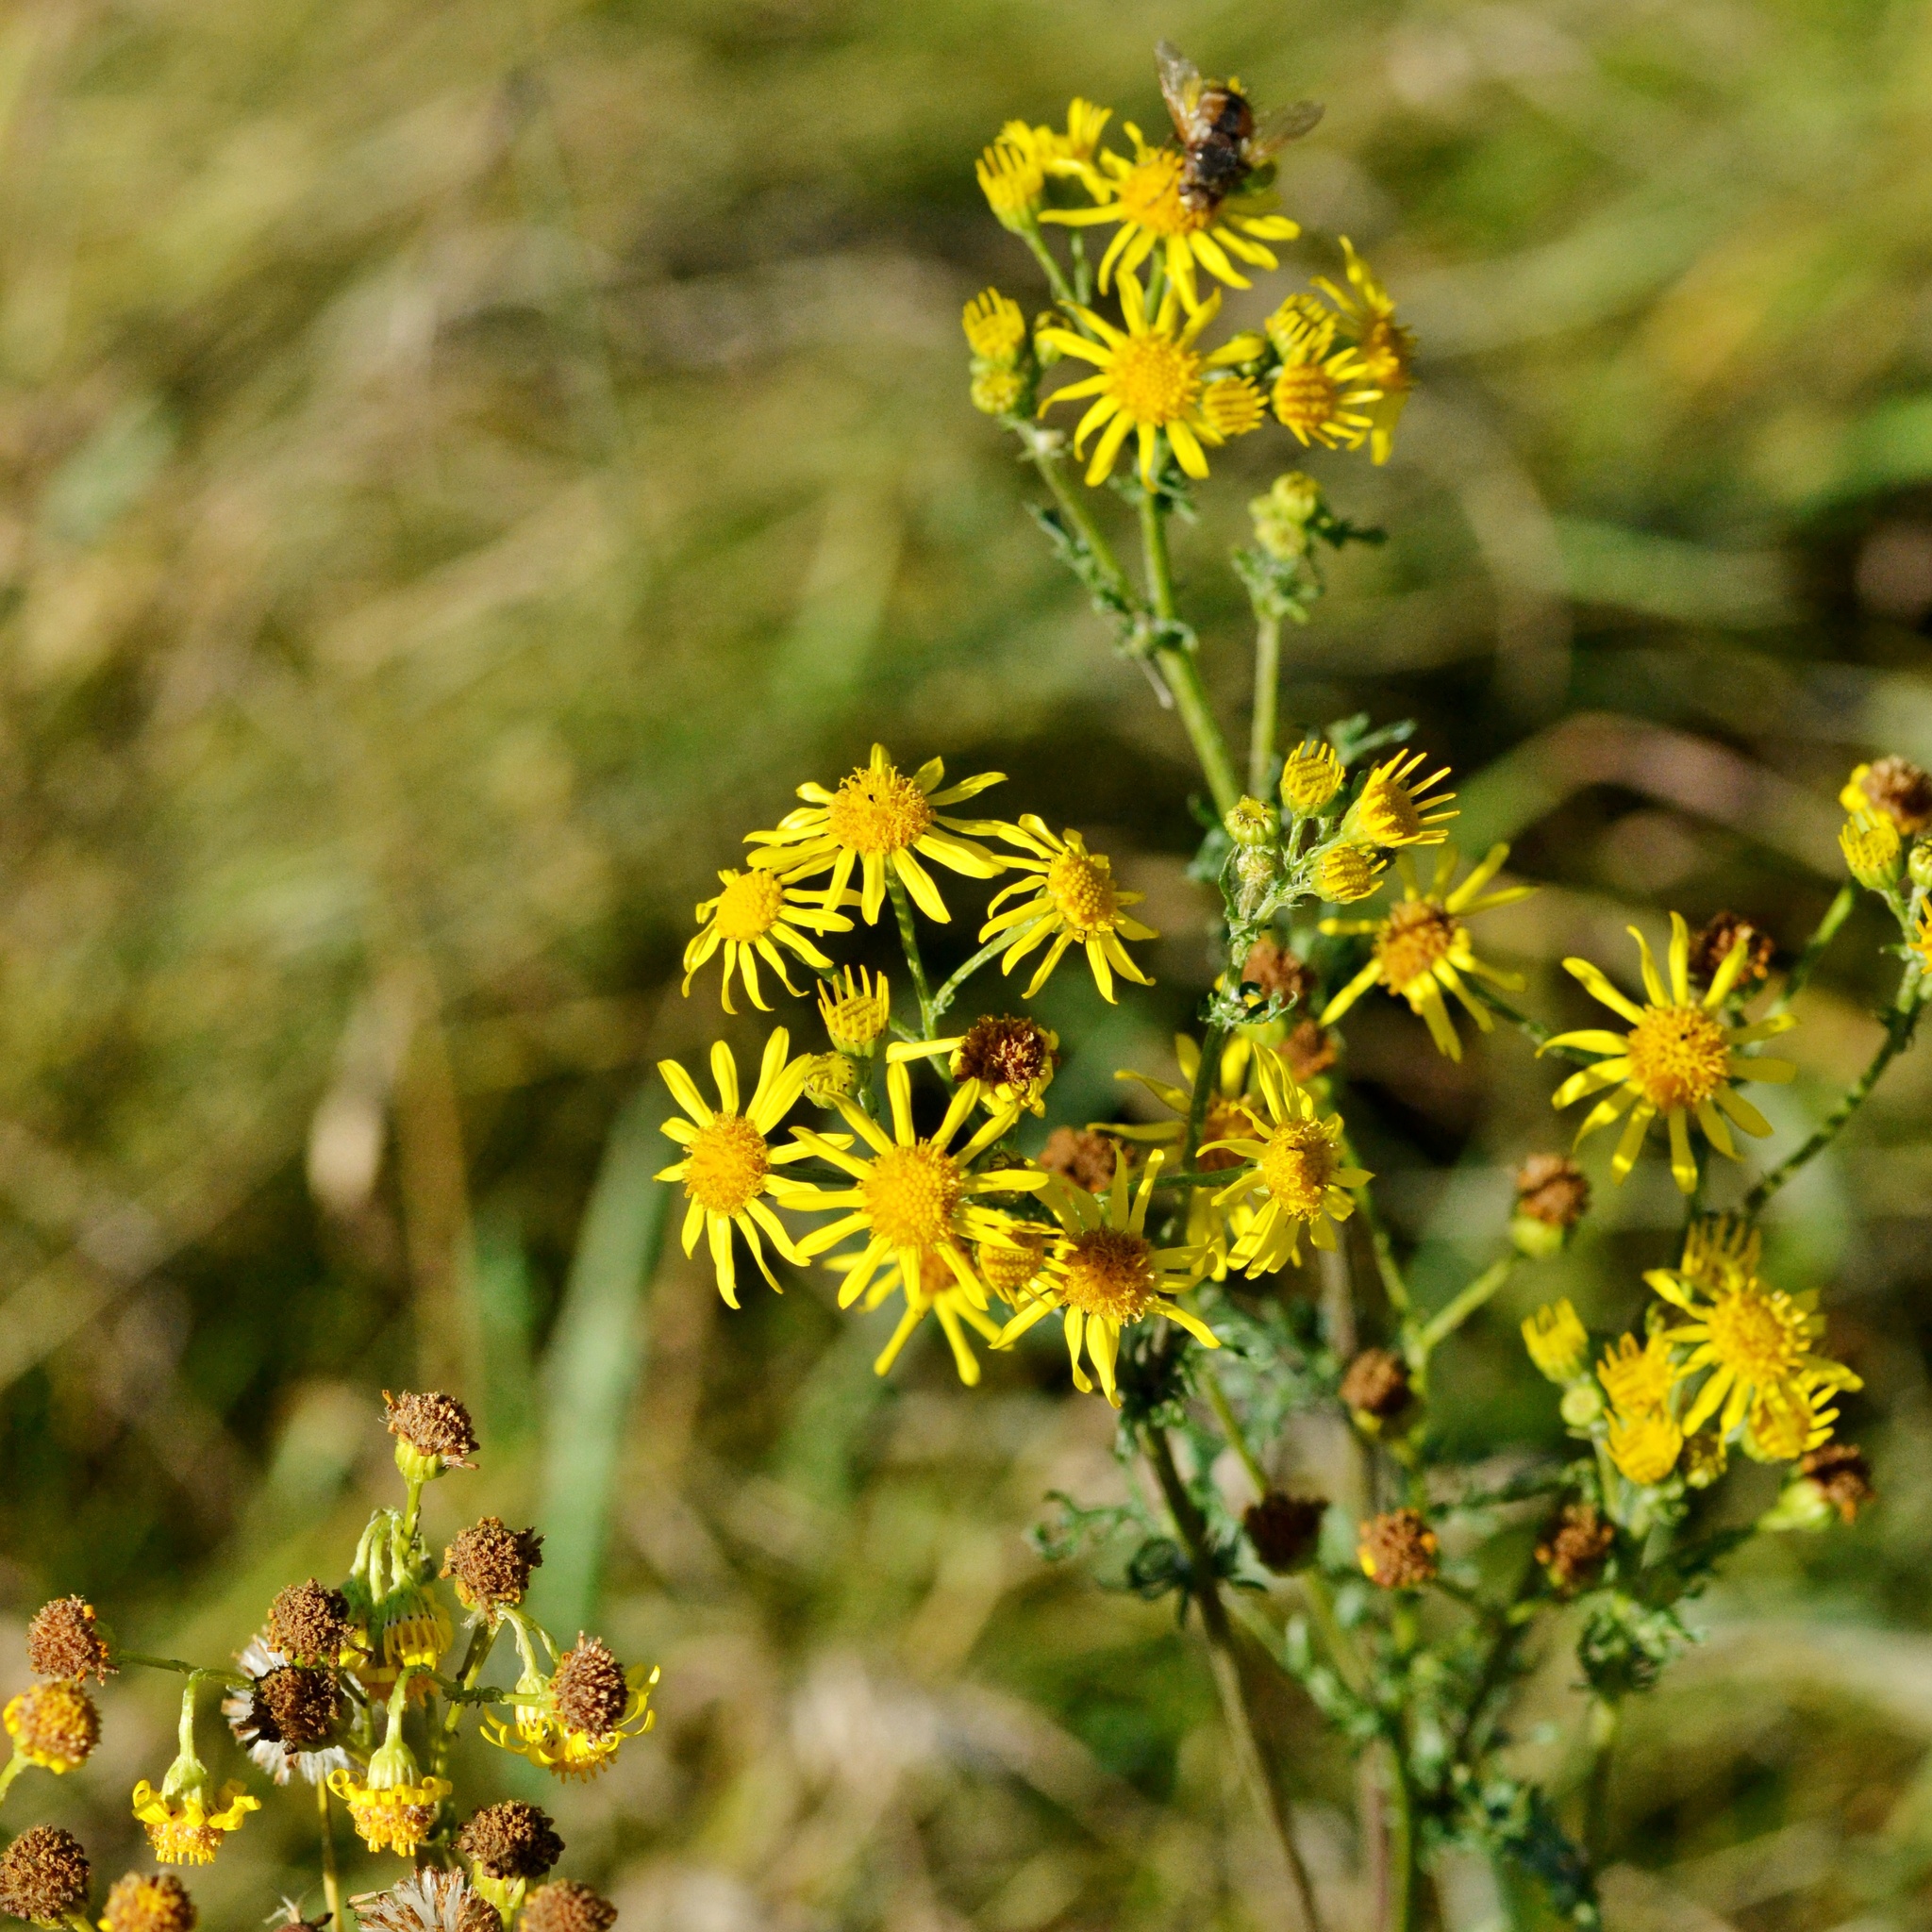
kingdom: Plantae
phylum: Tracheophyta
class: Magnoliopsida
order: Asterales
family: Asteraceae
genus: Jacobaea
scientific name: Jacobaea vulgaris
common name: Stinking willie
